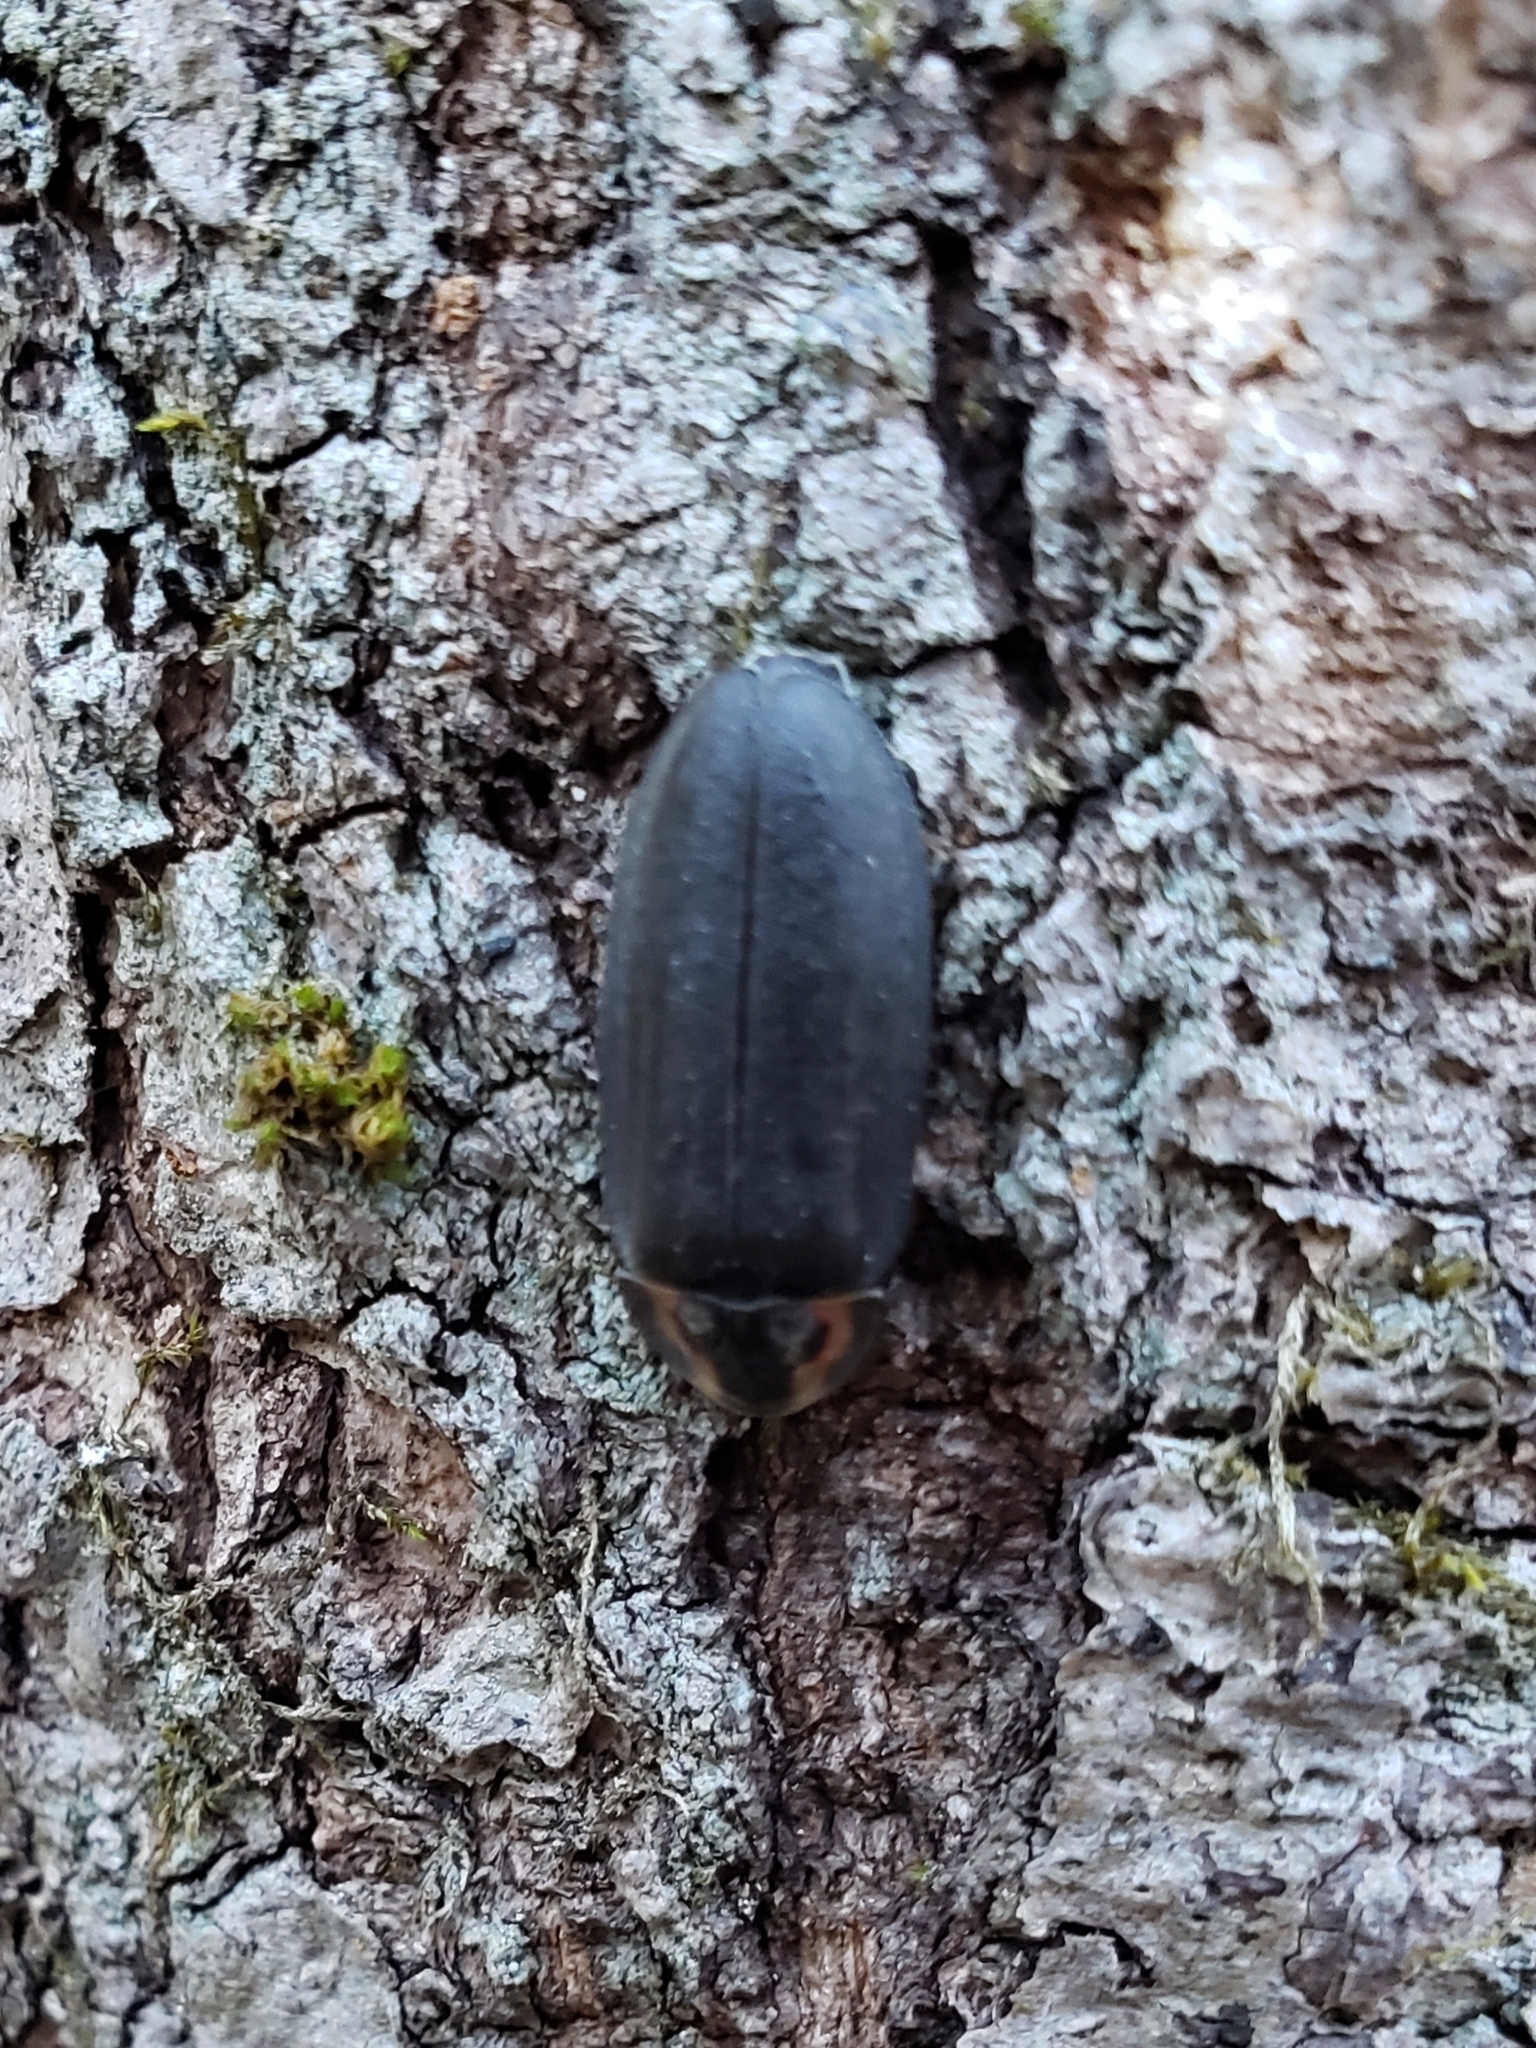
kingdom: Animalia
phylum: Arthropoda
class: Insecta
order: Coleoptera
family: Lampyridae
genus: Photinus
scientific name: Photinus corrusca
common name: Winter firefly
